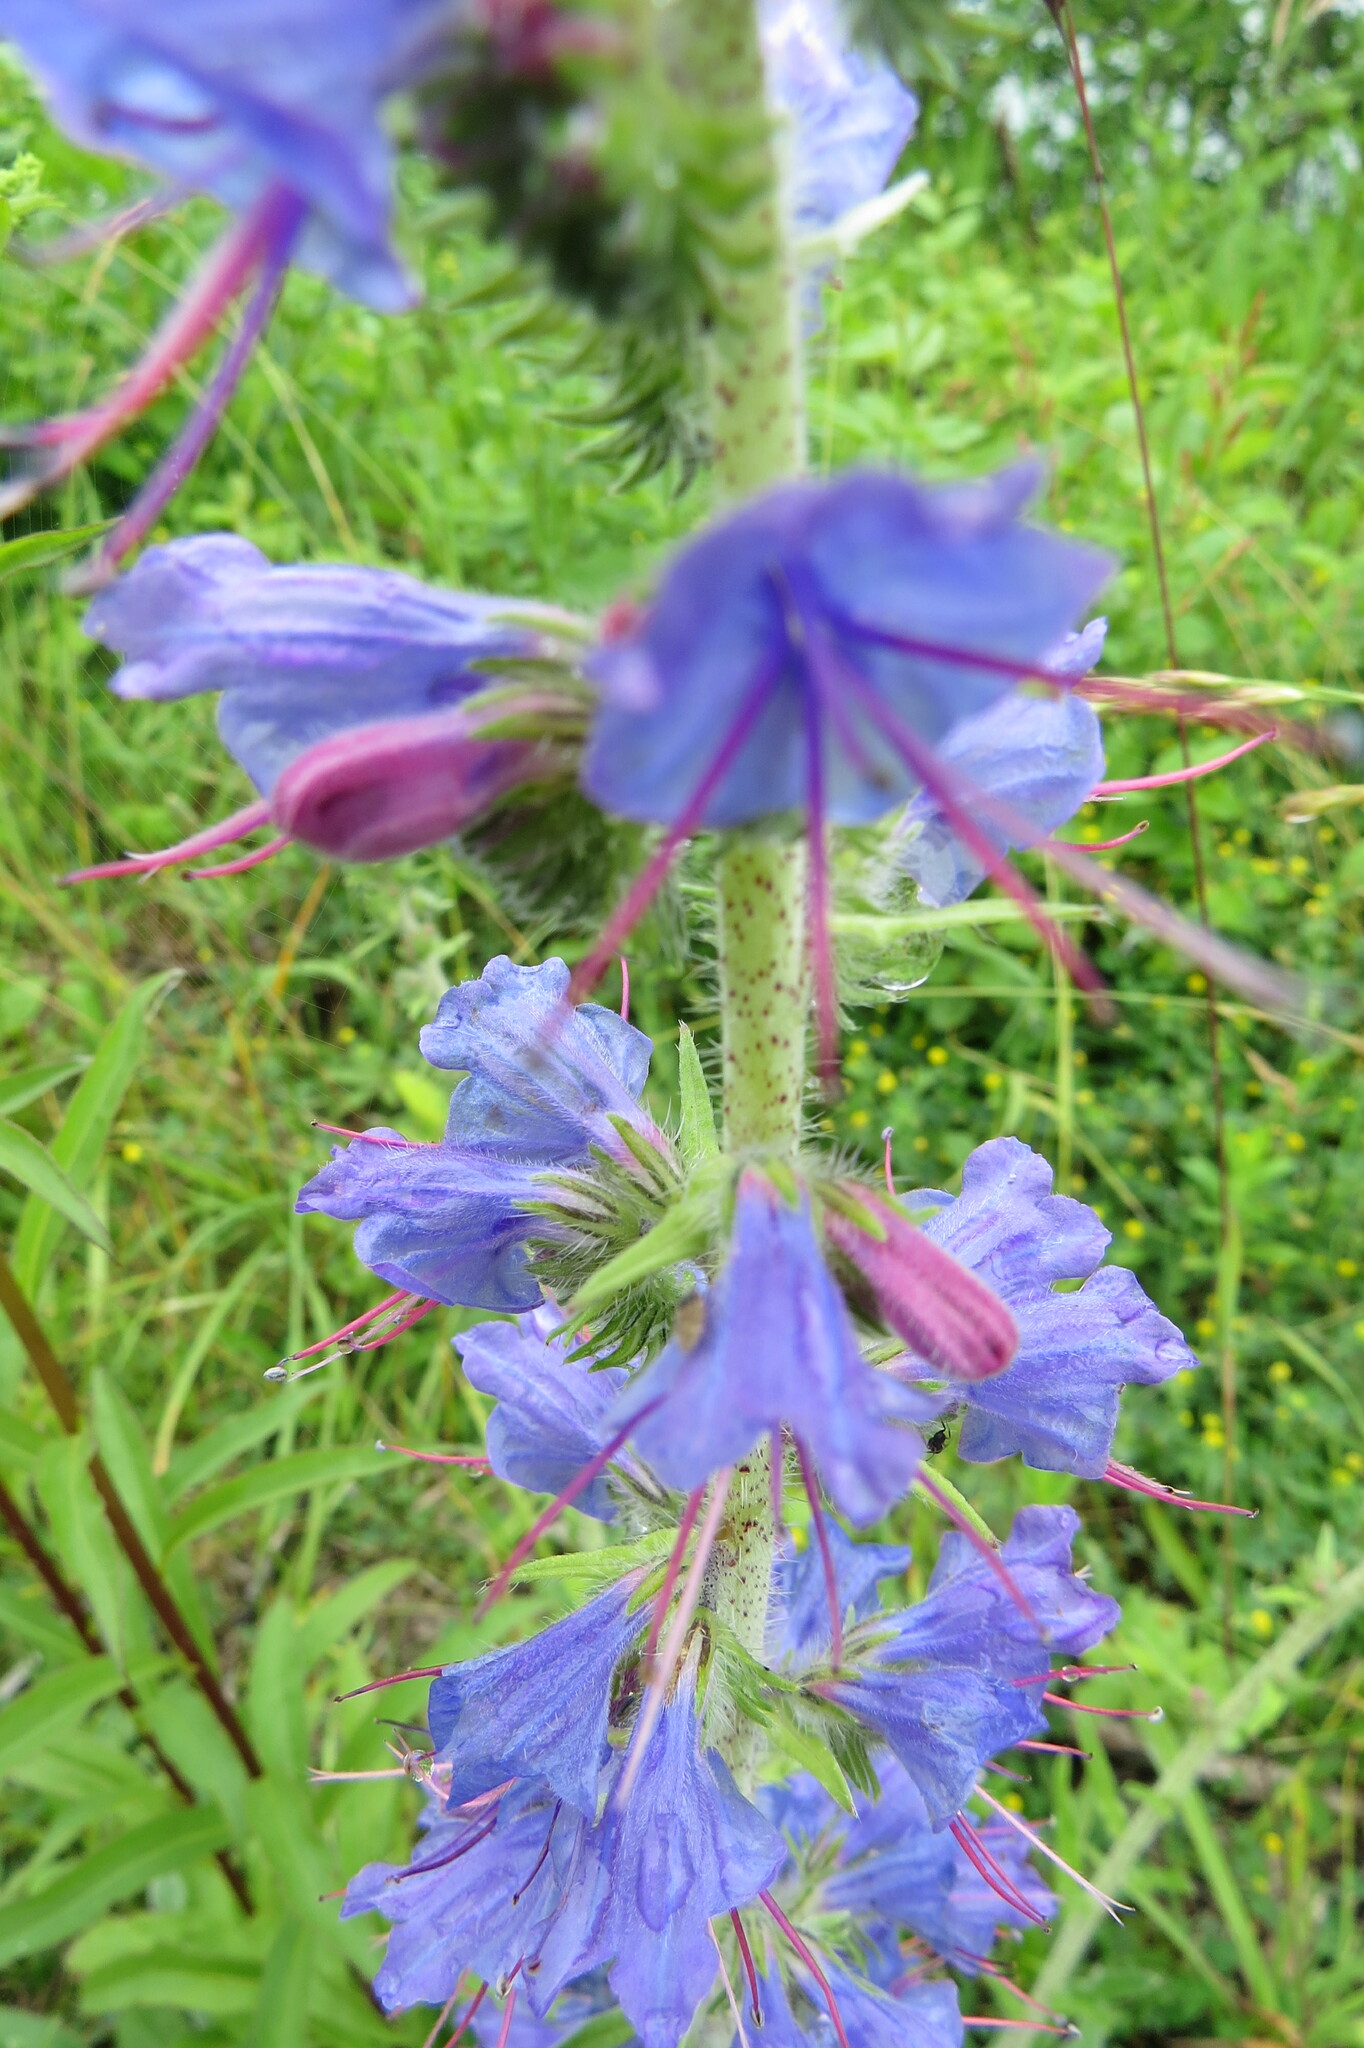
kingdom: Plantae
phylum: Tracheophyta
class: Magnoliopsida
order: Boraginales
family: Boraginaceae
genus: Echium
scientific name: Echium vulgare
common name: Common viper's bugloss
